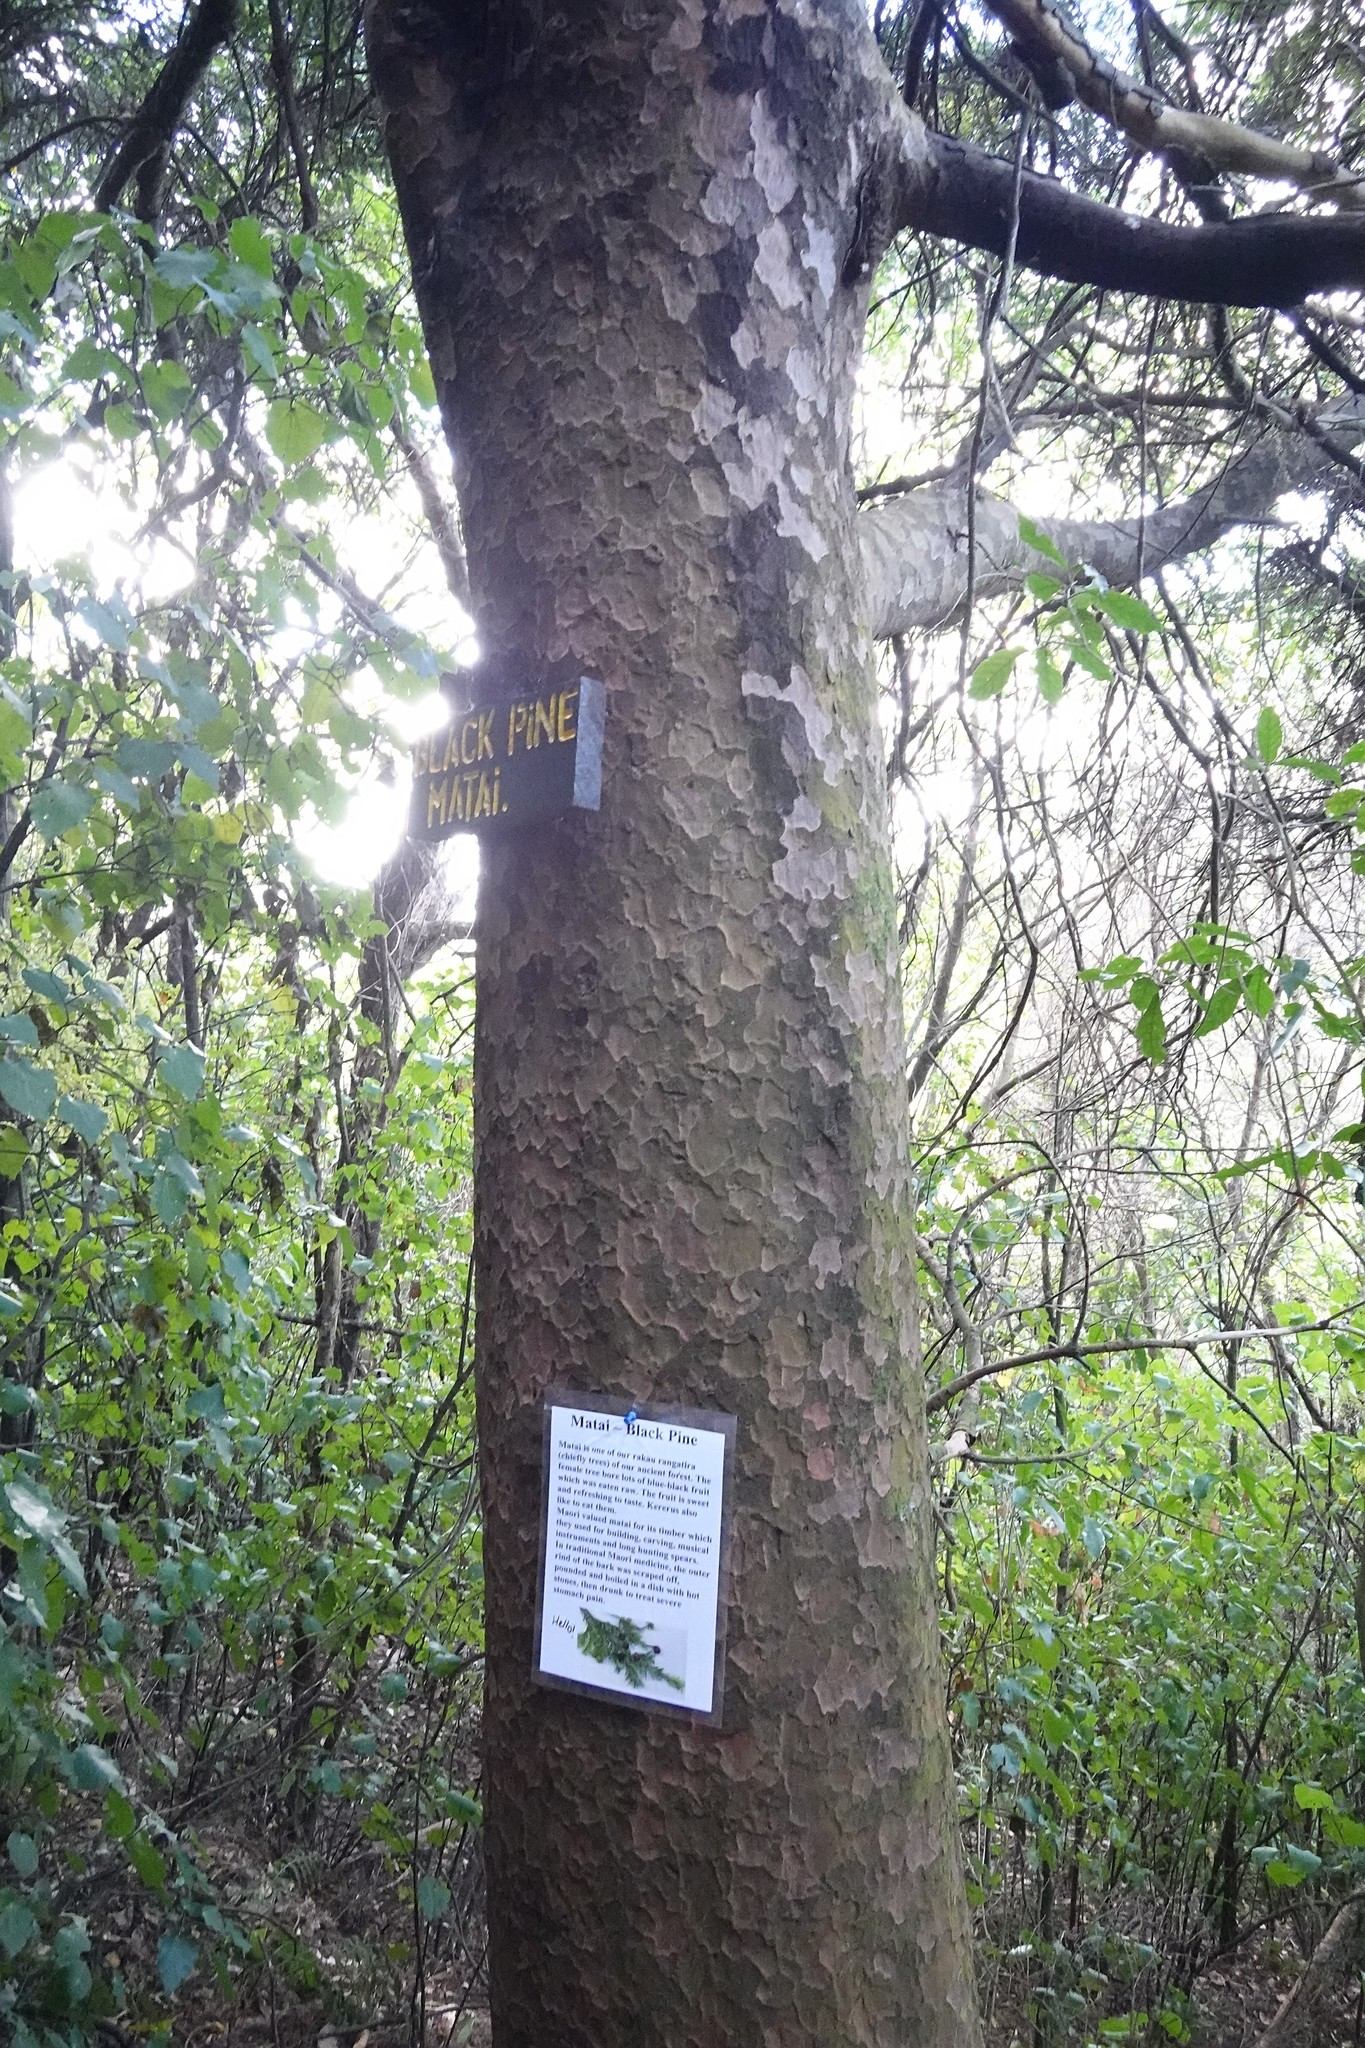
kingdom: Plantae
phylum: Tracheophyta
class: Pinopsida
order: Pinales
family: Podocarpaceae
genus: Prumnopitys
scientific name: Prumnopitys taxifolia
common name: Matai
